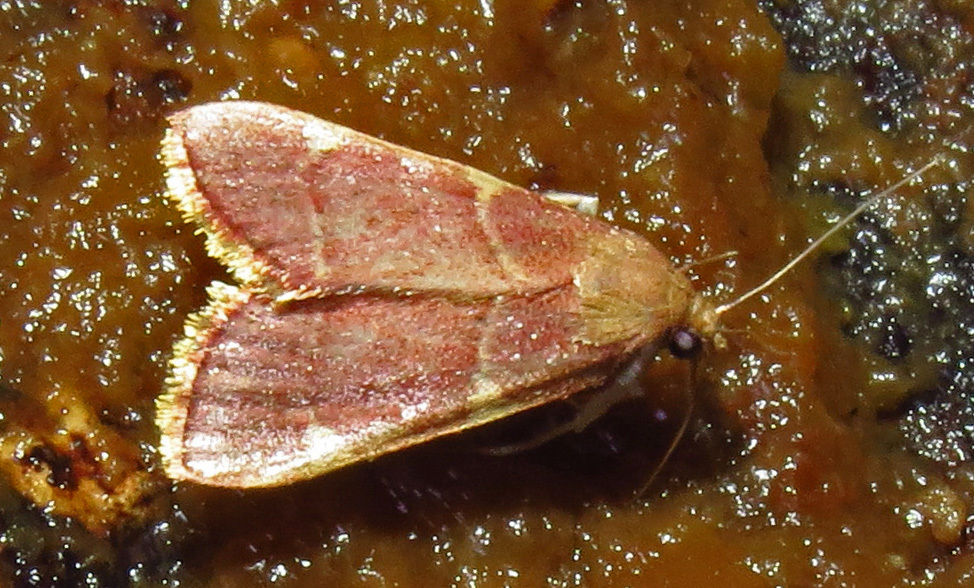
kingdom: Animalia
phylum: Arthropoda
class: Insecta
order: Lepidoptera
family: Pyralidae
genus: Hypsopygia
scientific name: Hypsopygia olinalis
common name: Yellow-fringed dolichomia moth
